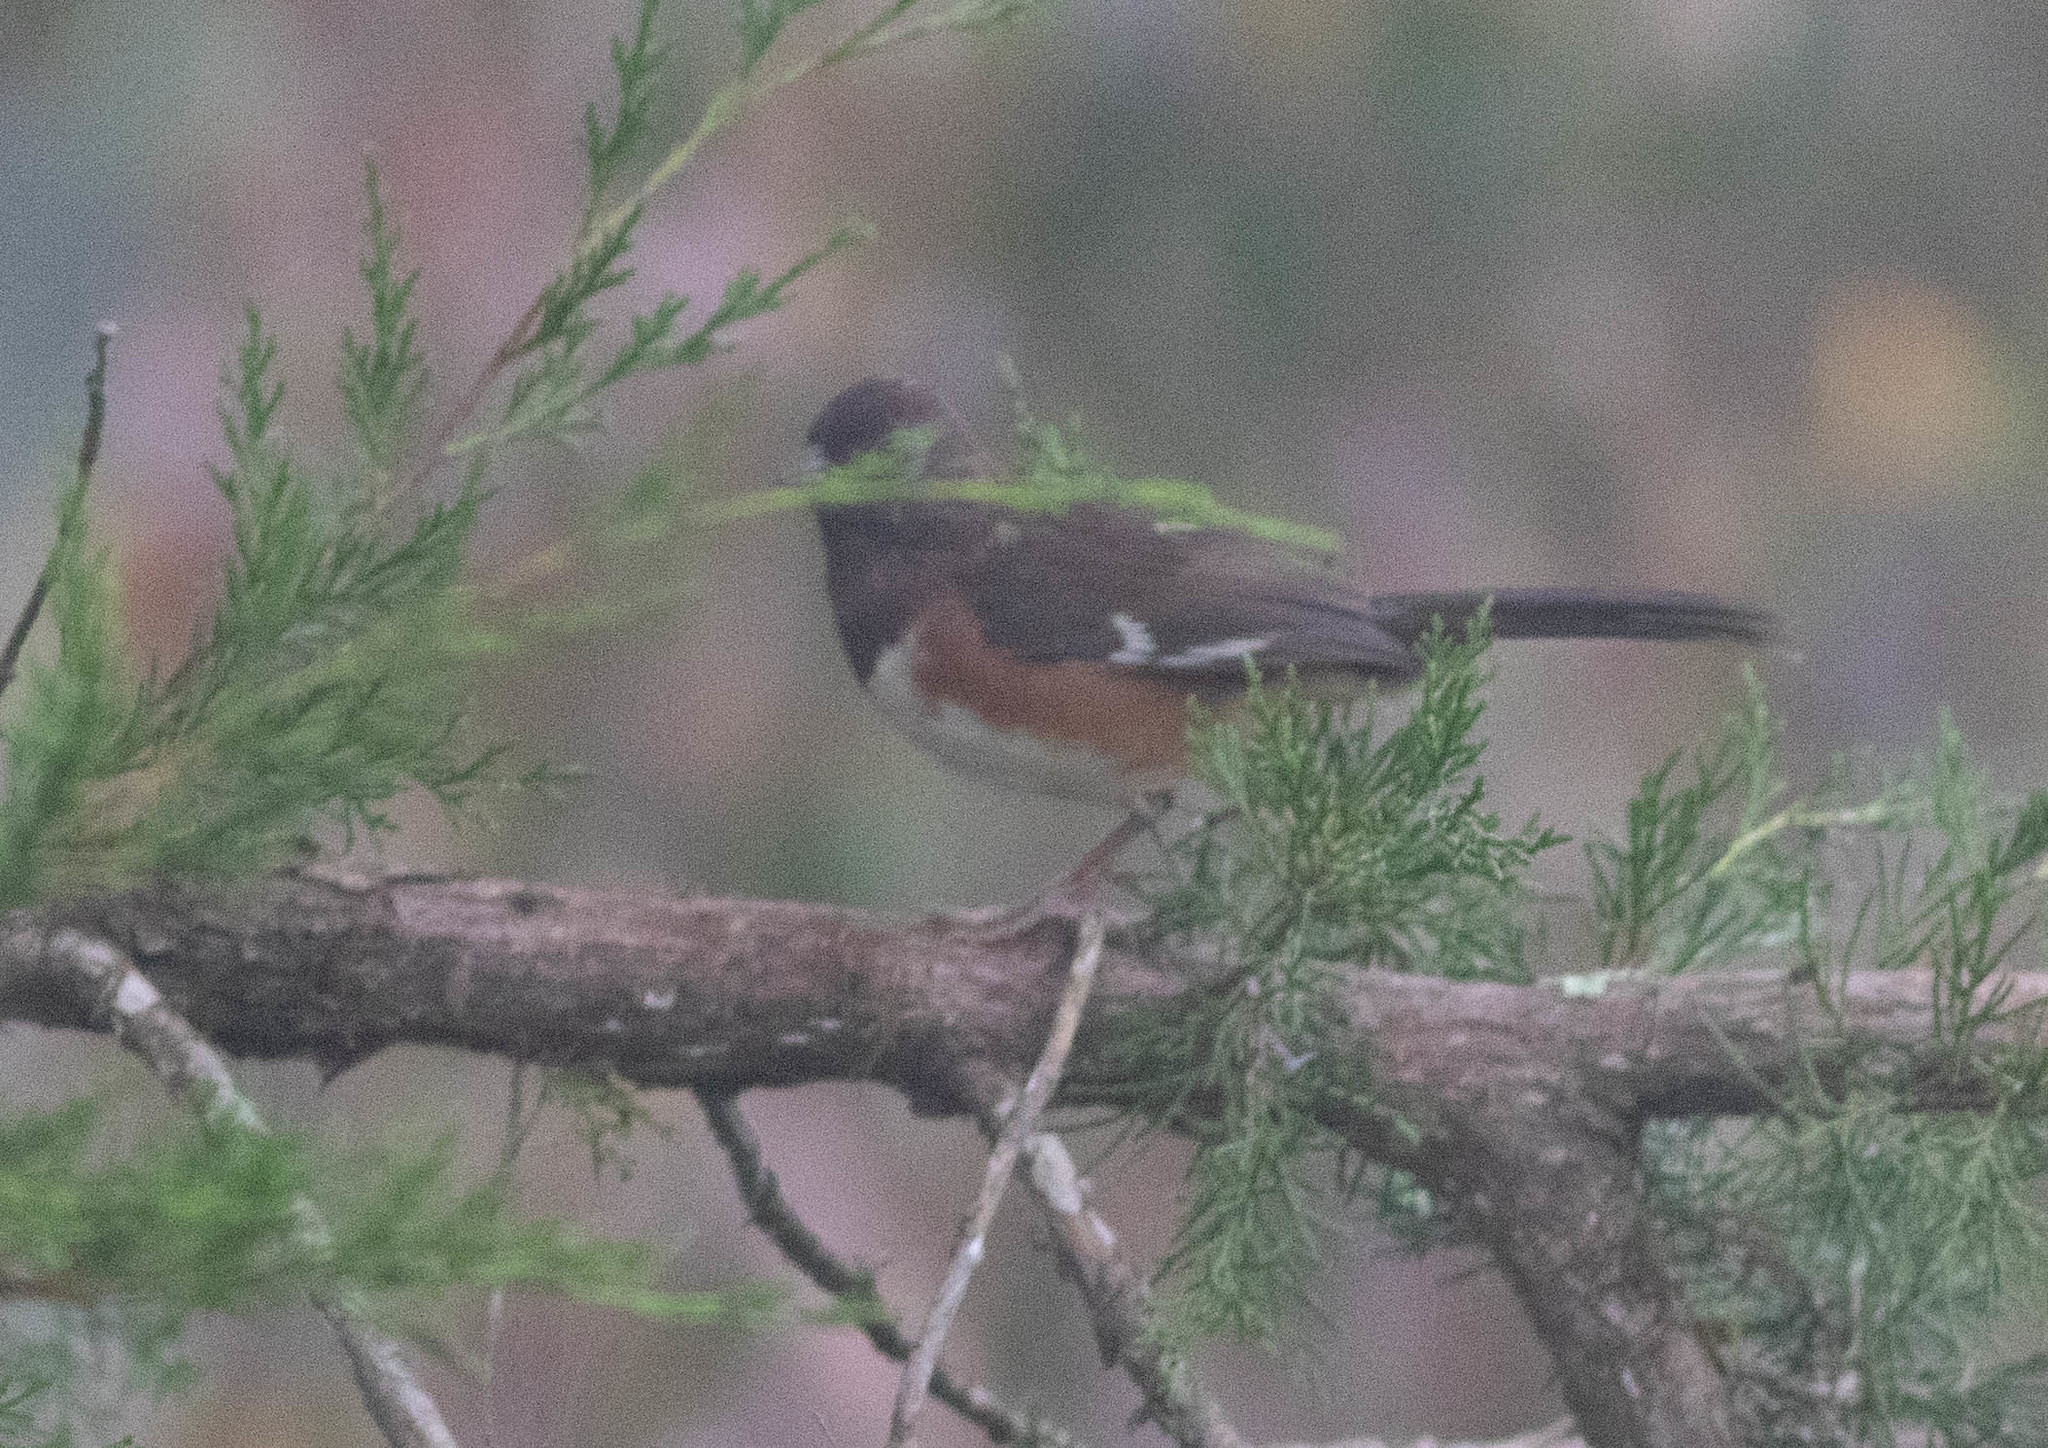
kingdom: Animalia
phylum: Chordata
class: Aves
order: Passeriformes
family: Passerellidae
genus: Pipilo
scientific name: Pipilo erythrophthalmus
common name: Eastern towhee
